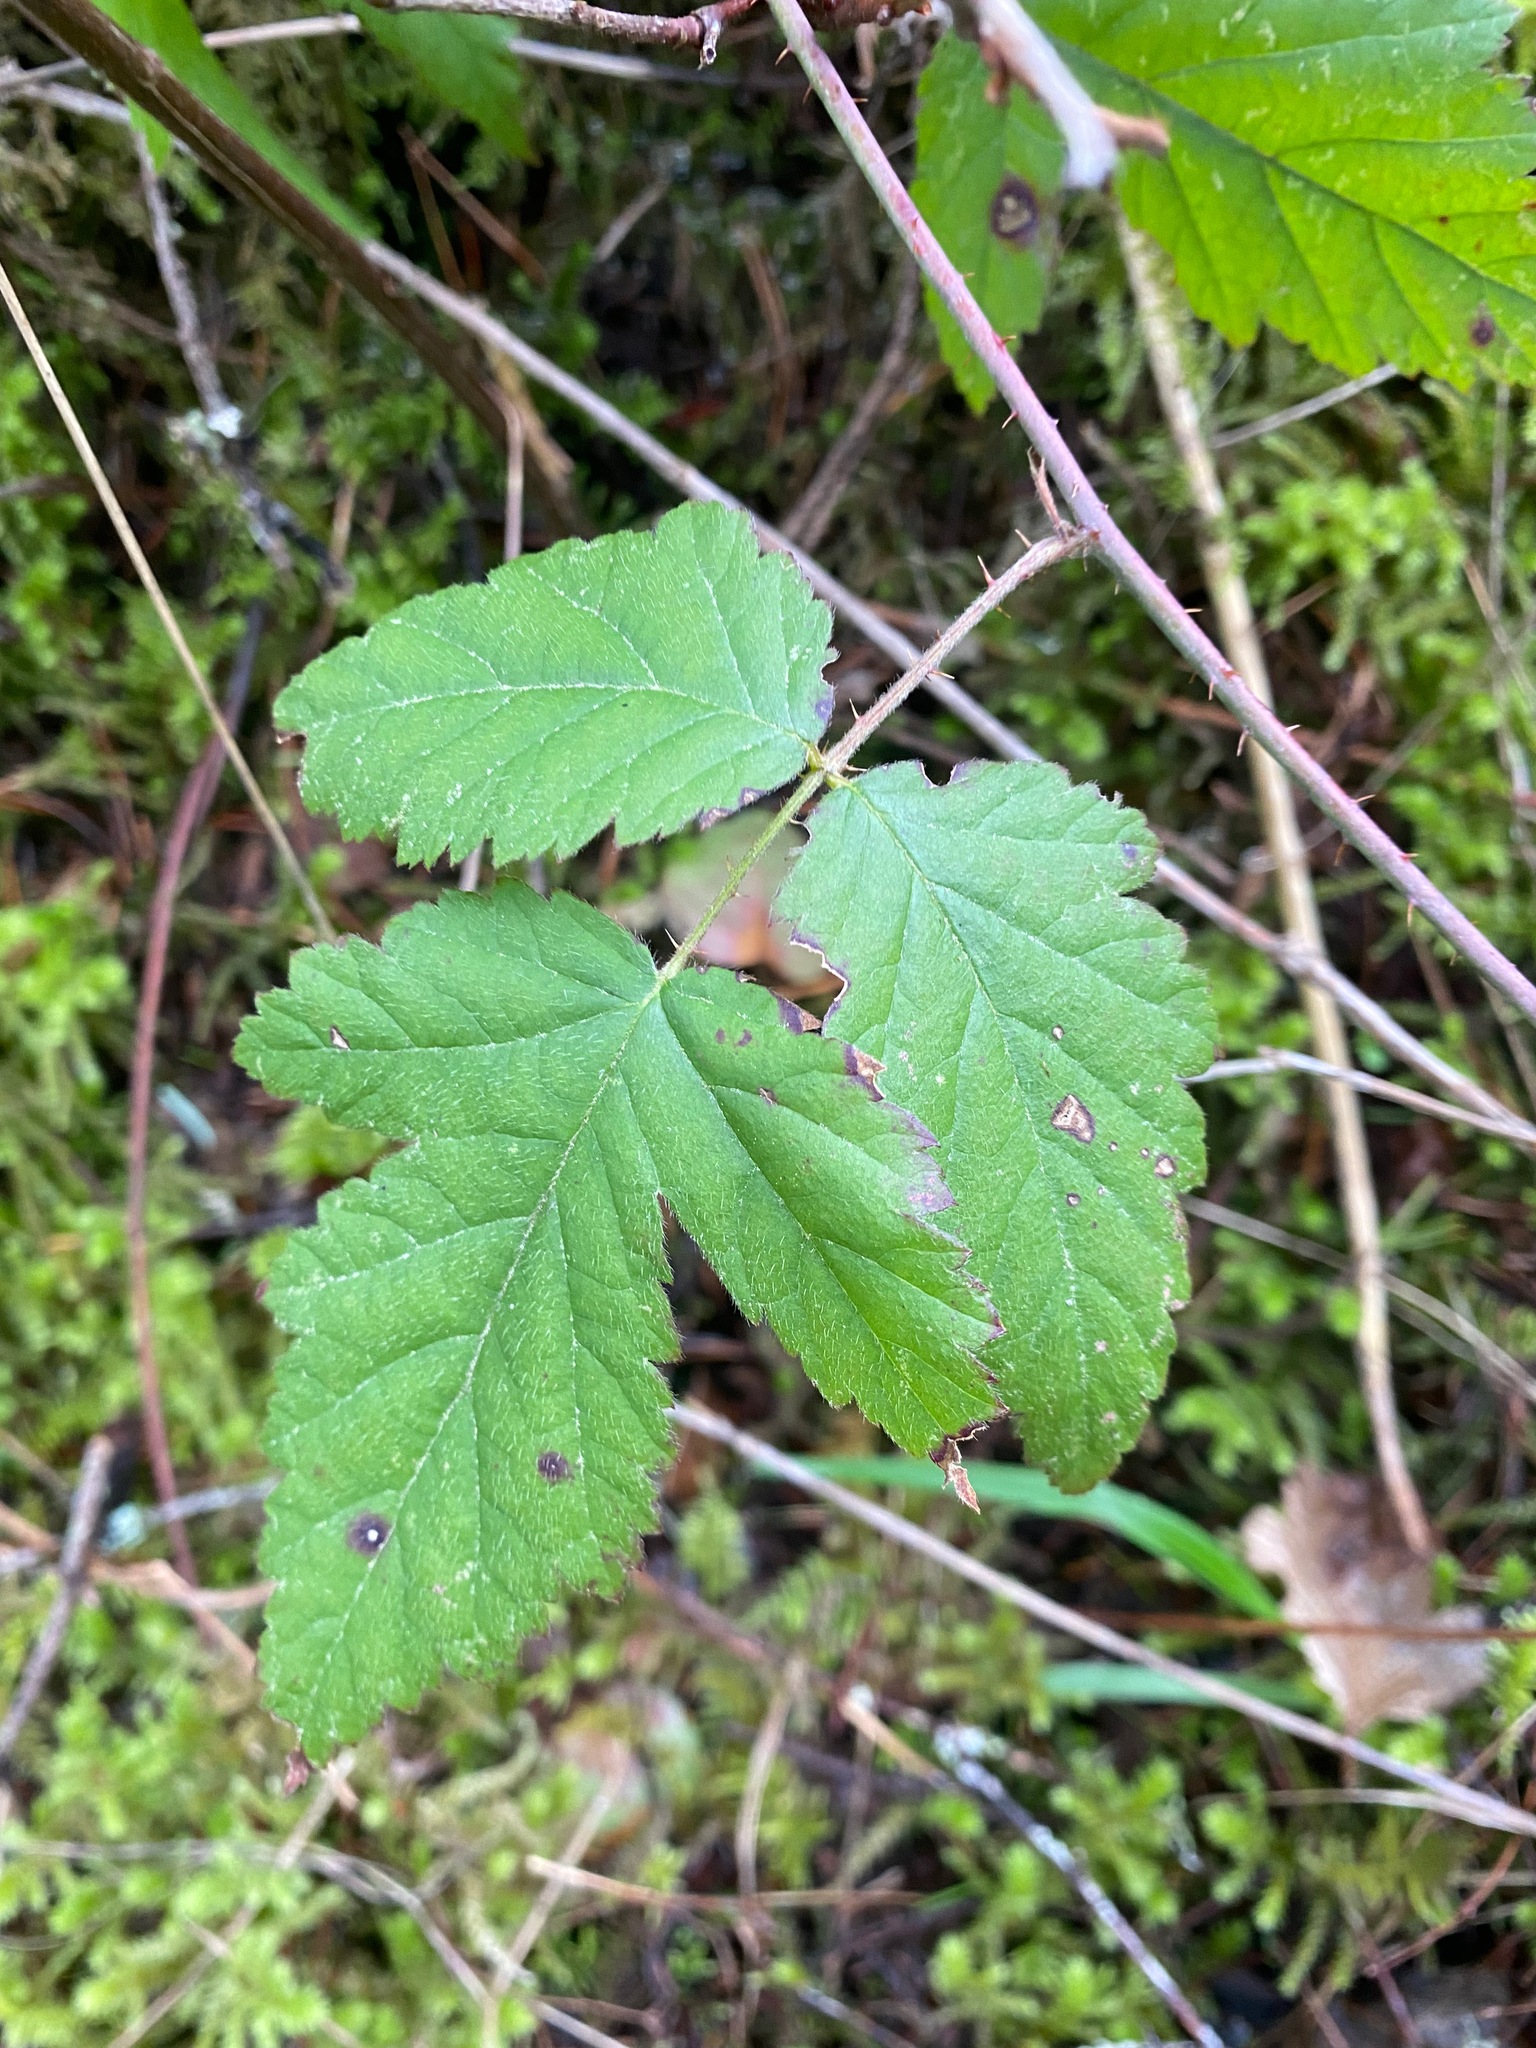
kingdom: Plantae
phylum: Tracheophyta
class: Magnoliopsida
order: Rosales
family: Rosaceae
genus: Rubus
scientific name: Rubus ursinus
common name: Pacific blackberry
